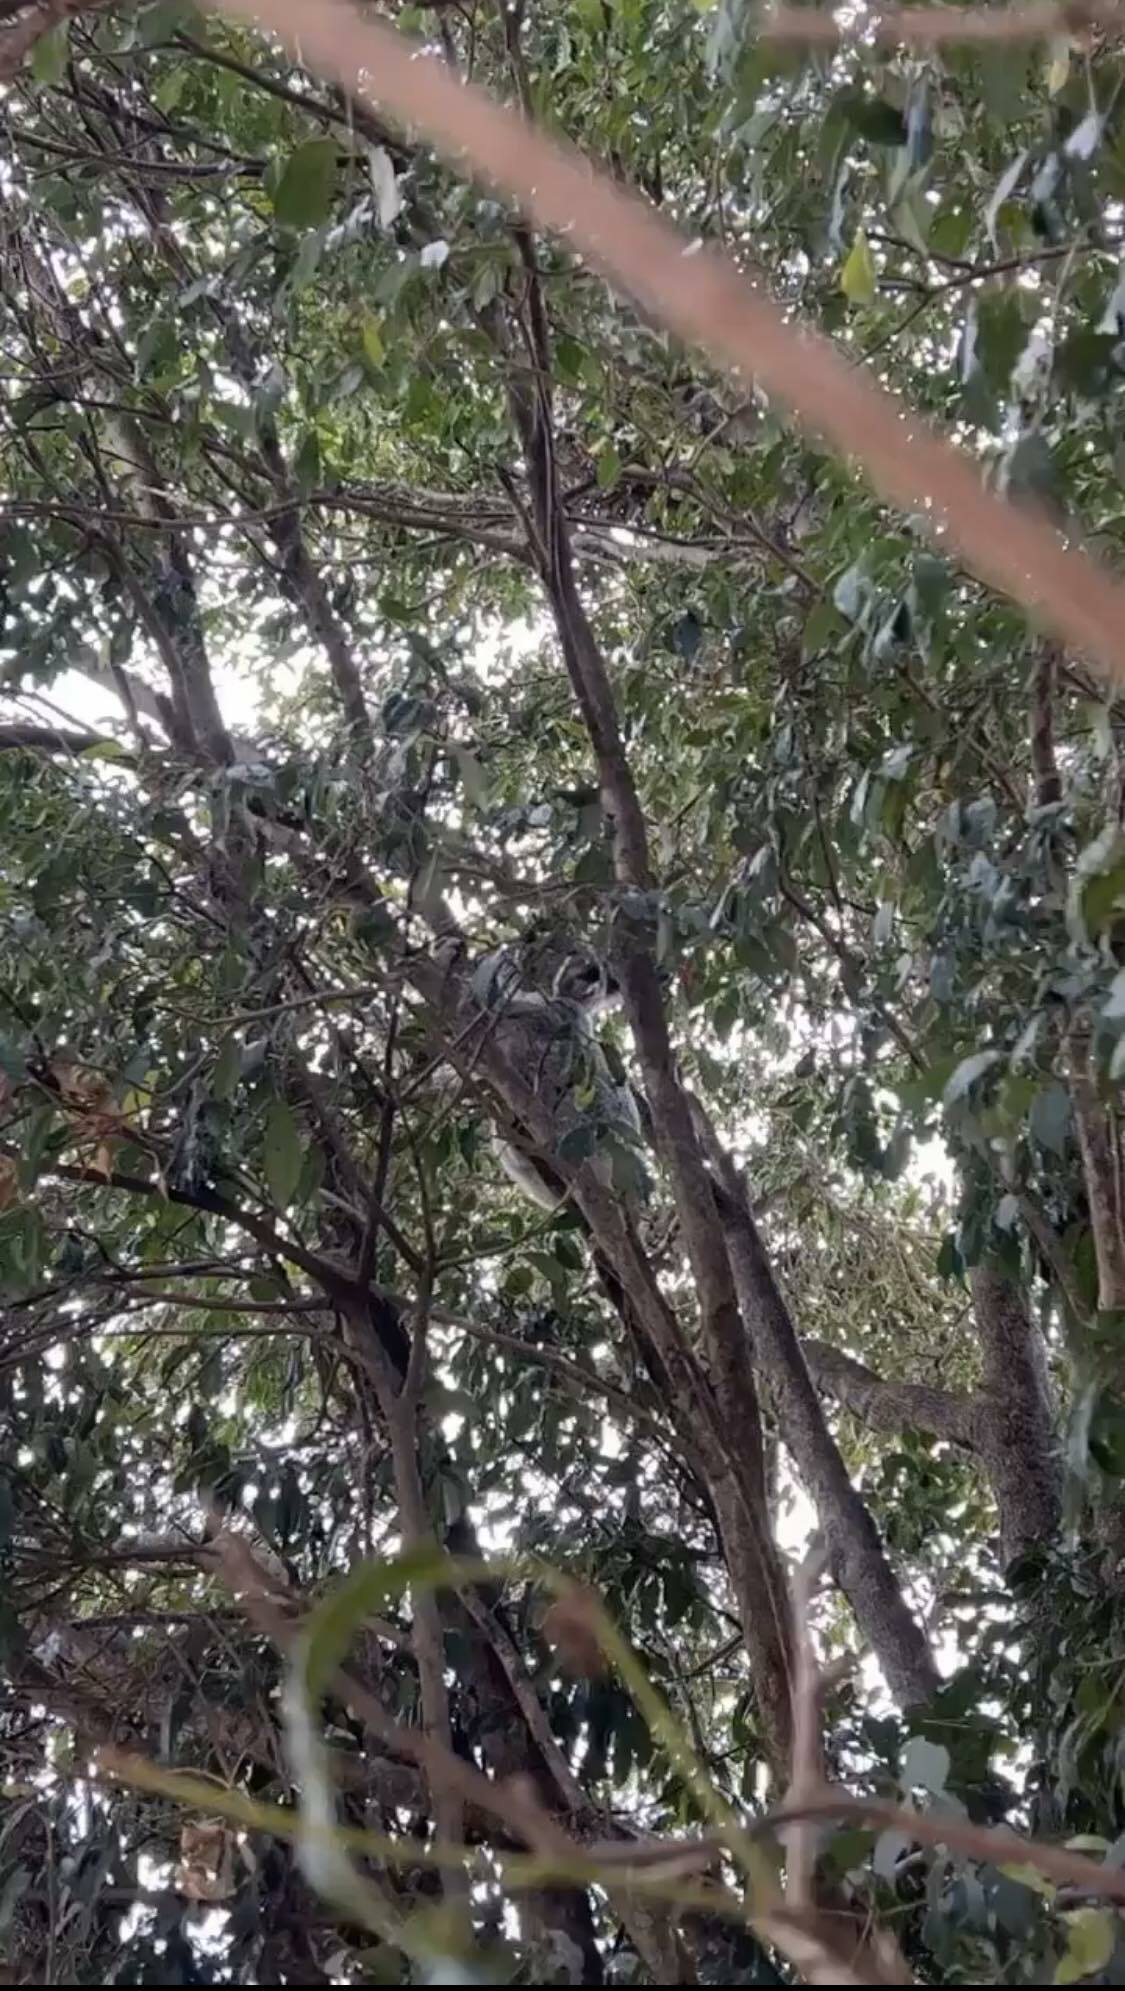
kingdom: Animalia
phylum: Chordata
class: Mammalia
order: Diprotodontia
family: Phascolarctidae
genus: Phascolarctos
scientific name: Phascolarctos cinereus
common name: Koala
